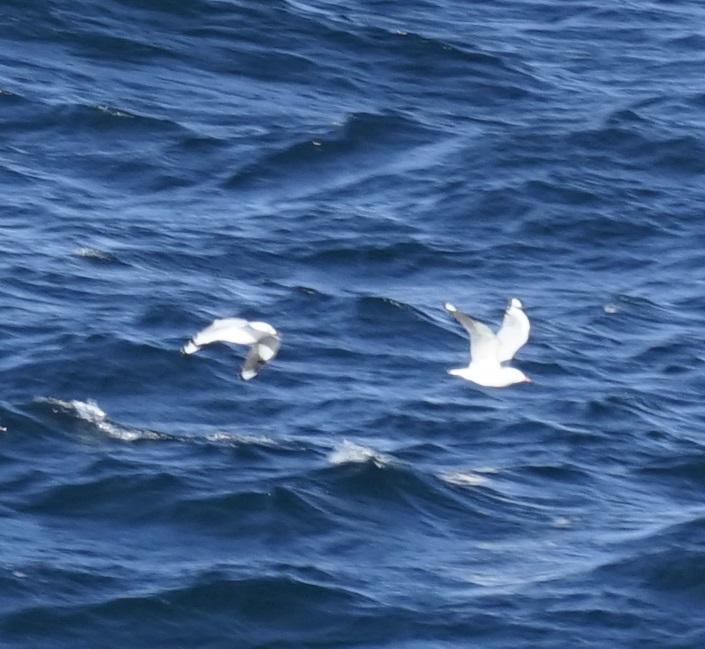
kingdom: Animalia
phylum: Chordata
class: Aves
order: Charadriiformes
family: Laridae
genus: Chroicocephalus
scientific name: Chroicocephalus novaehollandiae
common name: Silver gull
